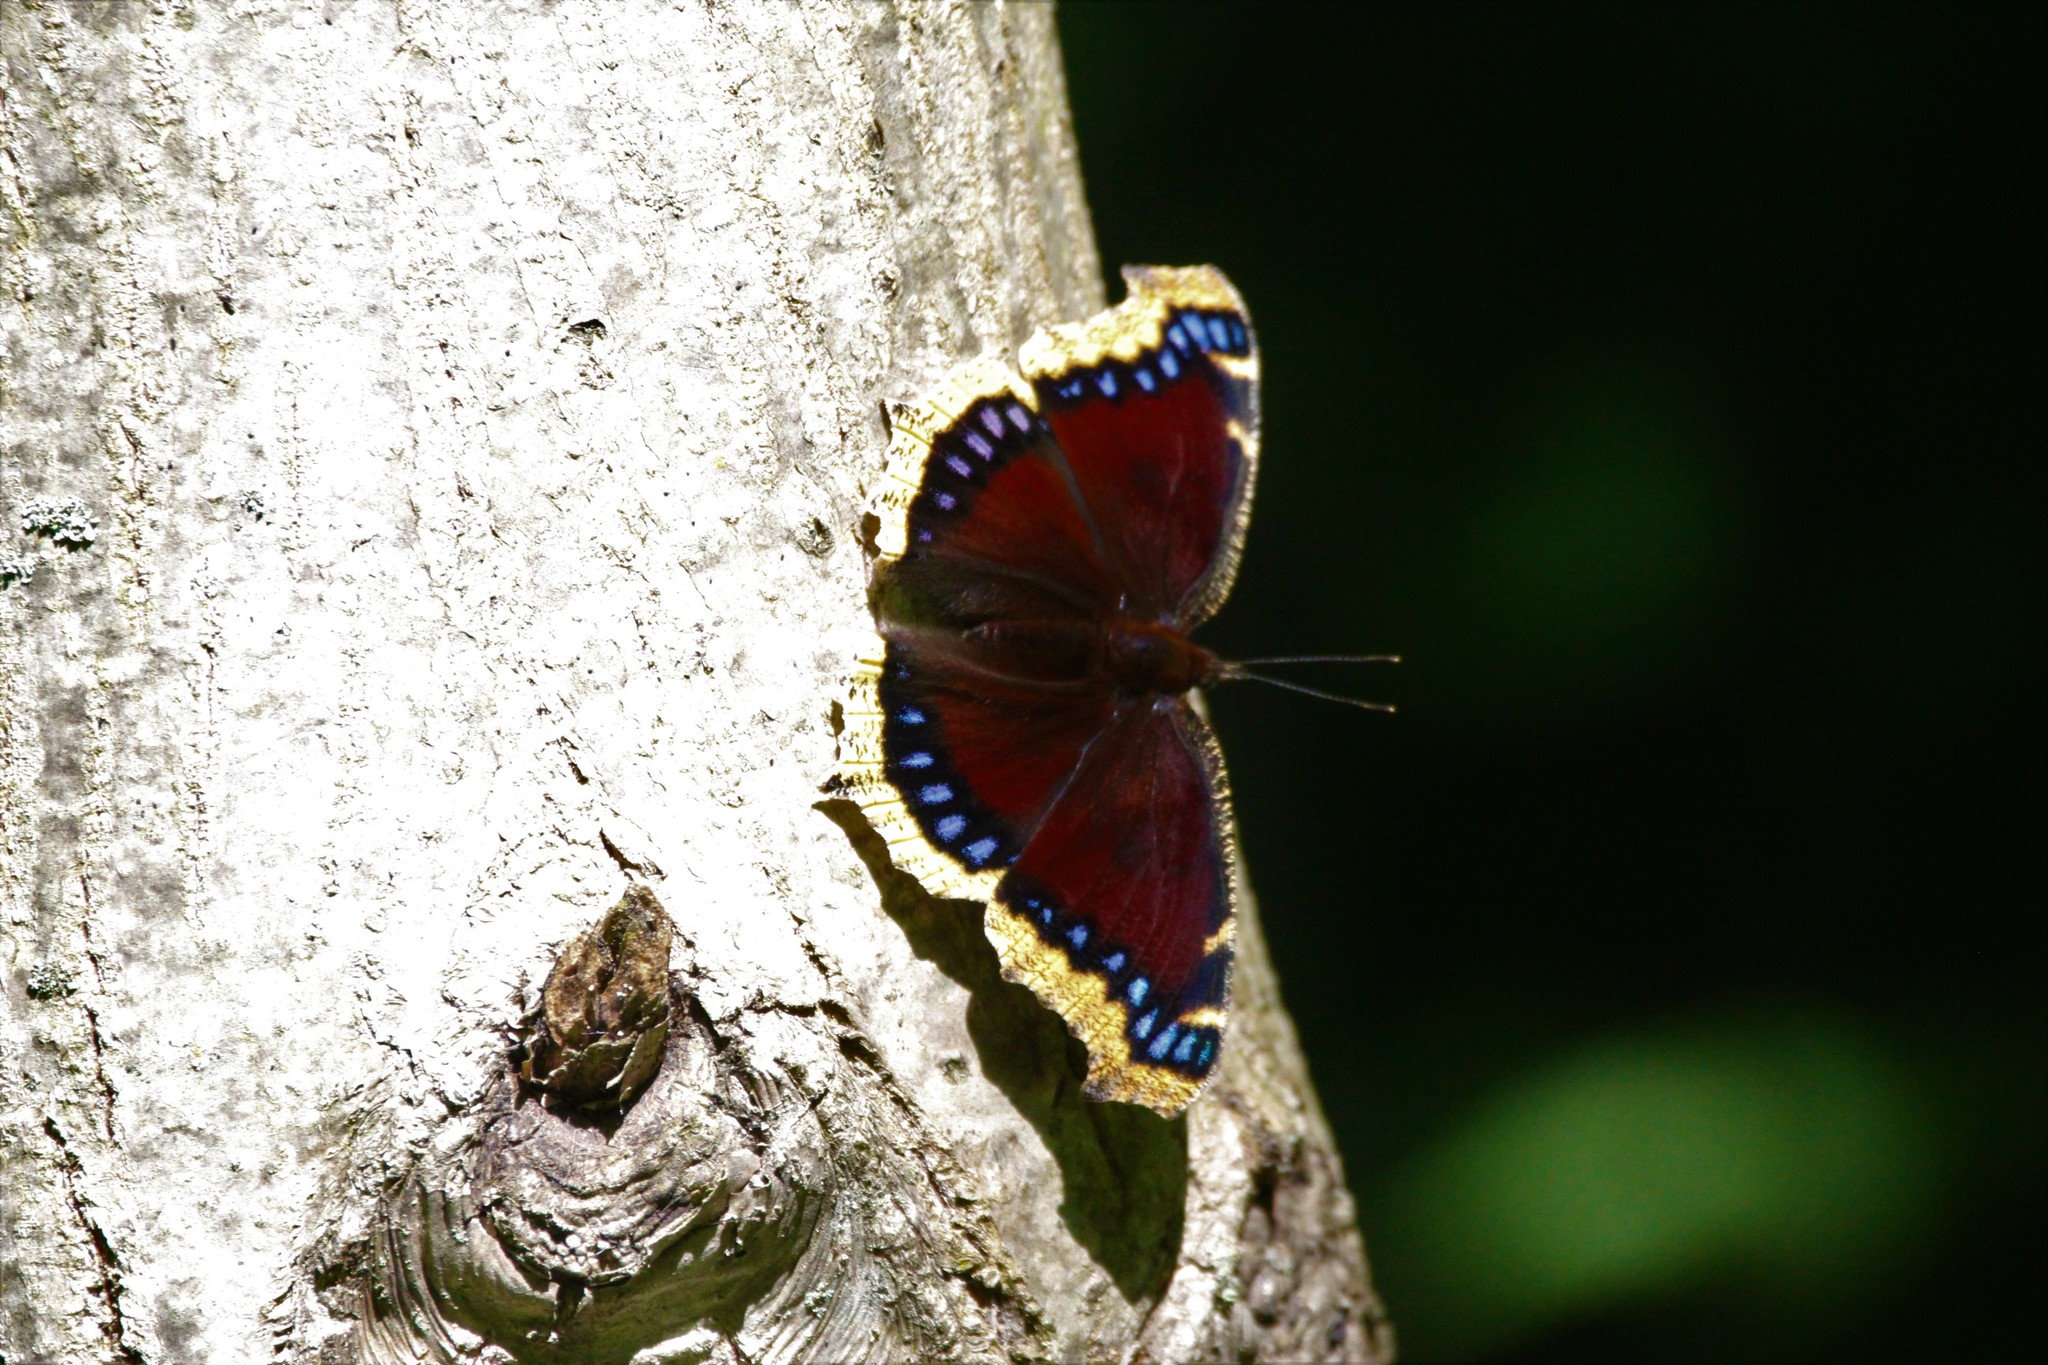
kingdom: Animalia
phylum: Arthropoda
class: Insecta
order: Lepidoptera
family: Nymphalidae
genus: Nymphalis
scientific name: Nymphalis antiopa
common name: Camberwell beauty
